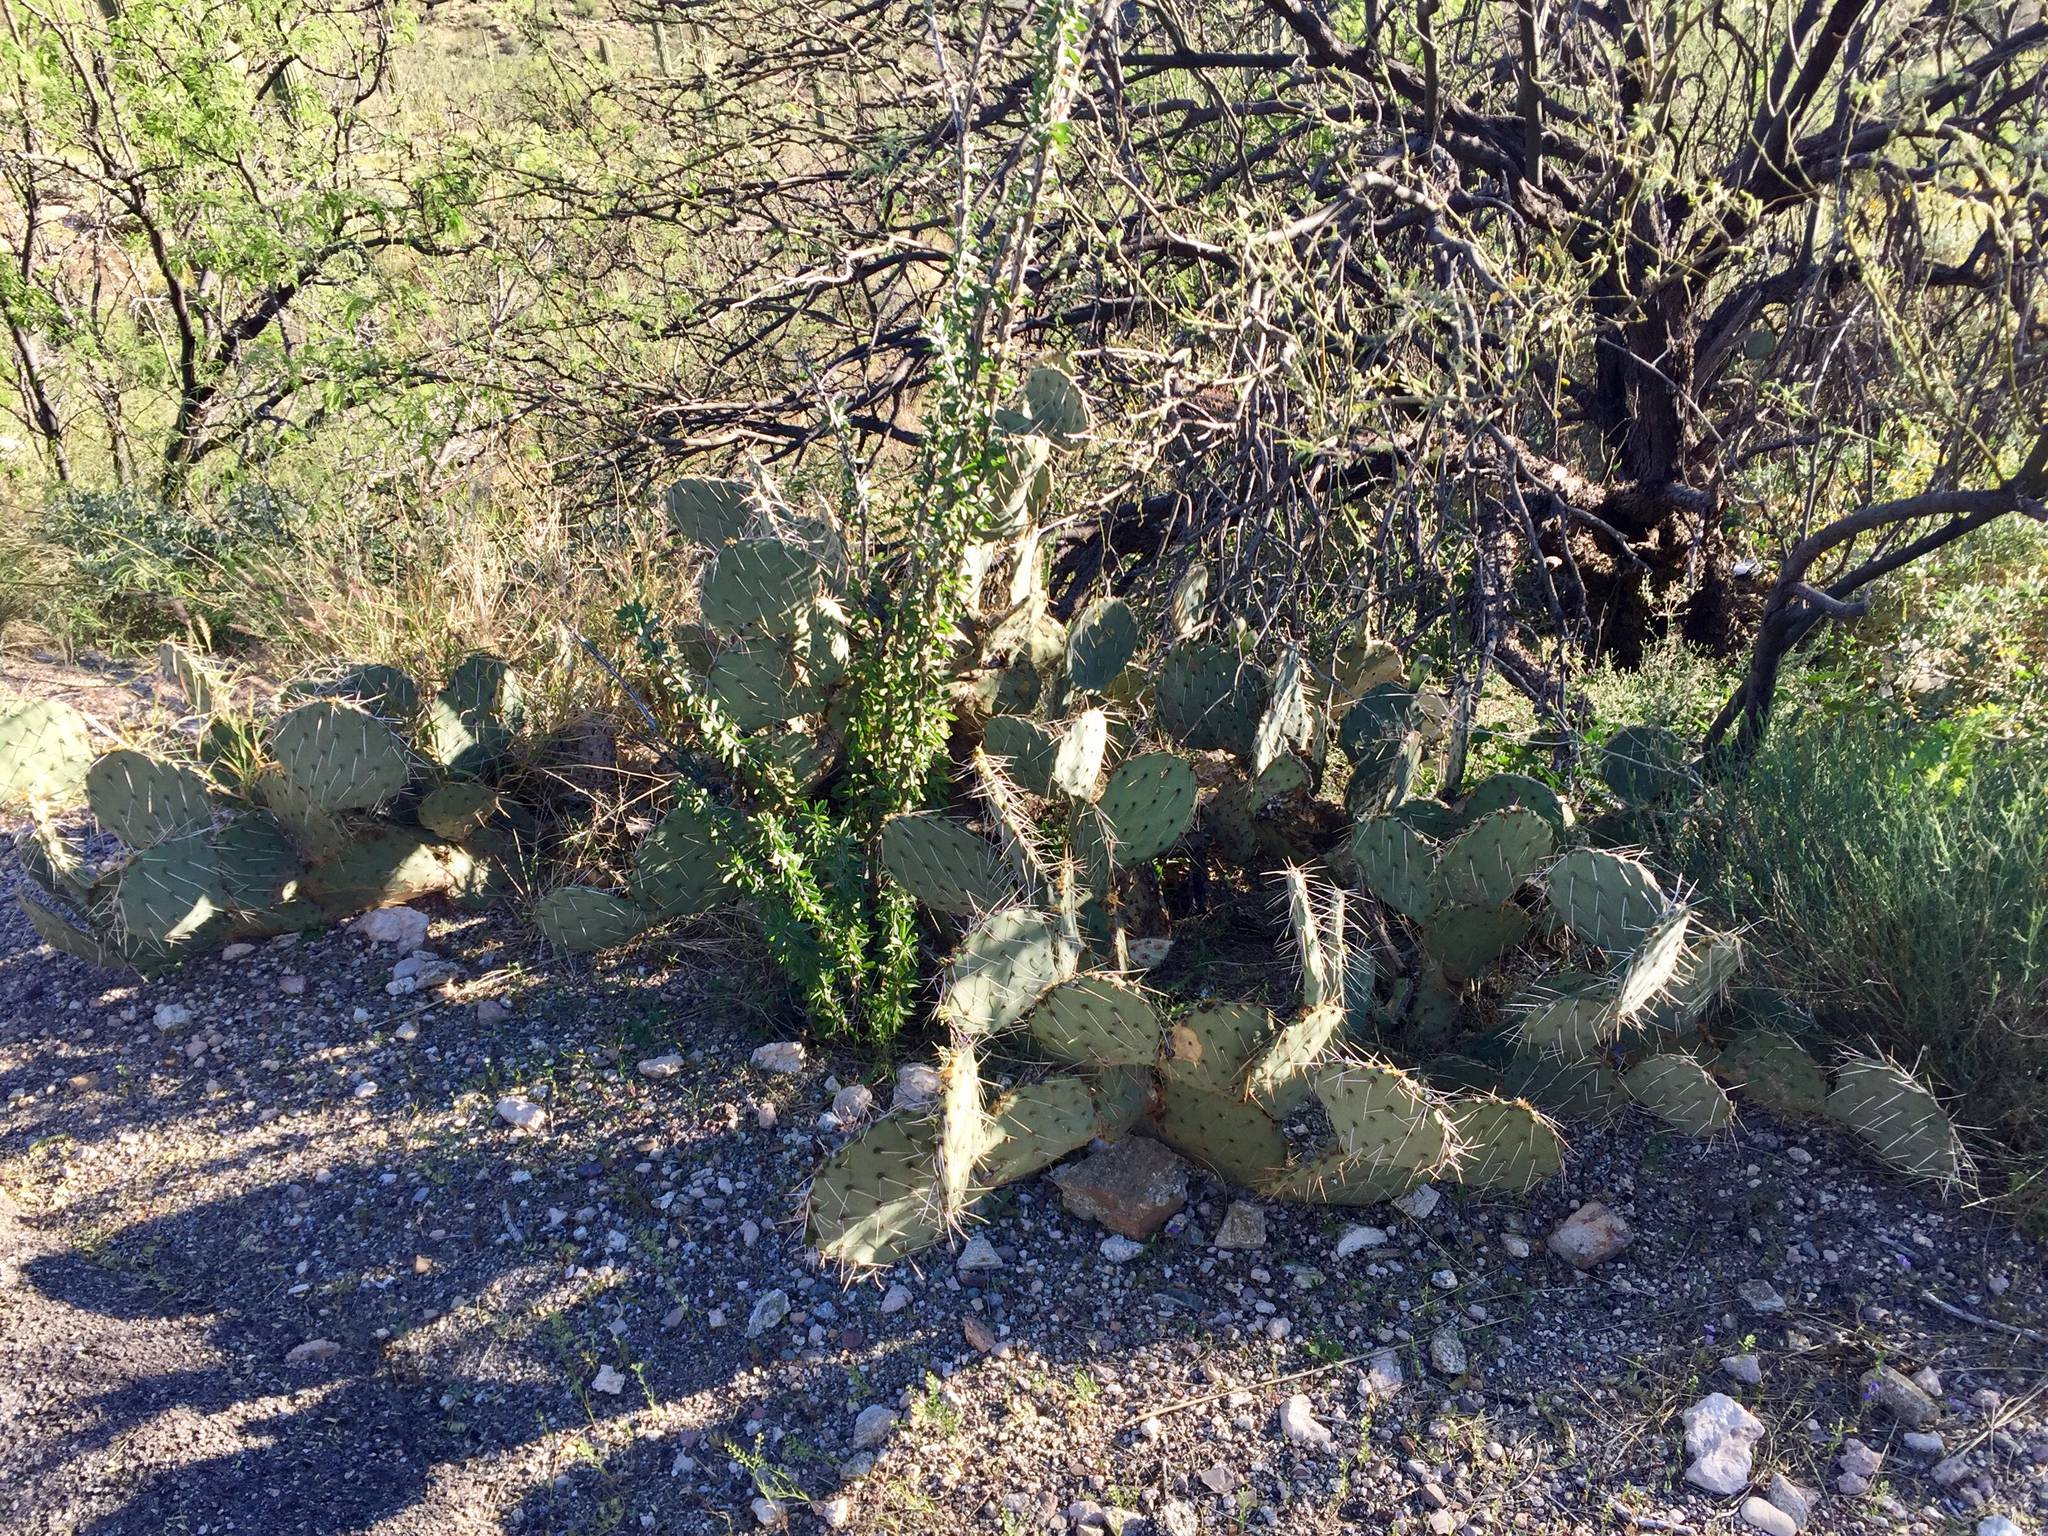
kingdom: Plantae
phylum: Tracheophyta
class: Magnoliopsida
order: Ericales
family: Fouquieriaceae
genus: Fouquieria
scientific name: Fouquieria splendens
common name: Vine-cactus
